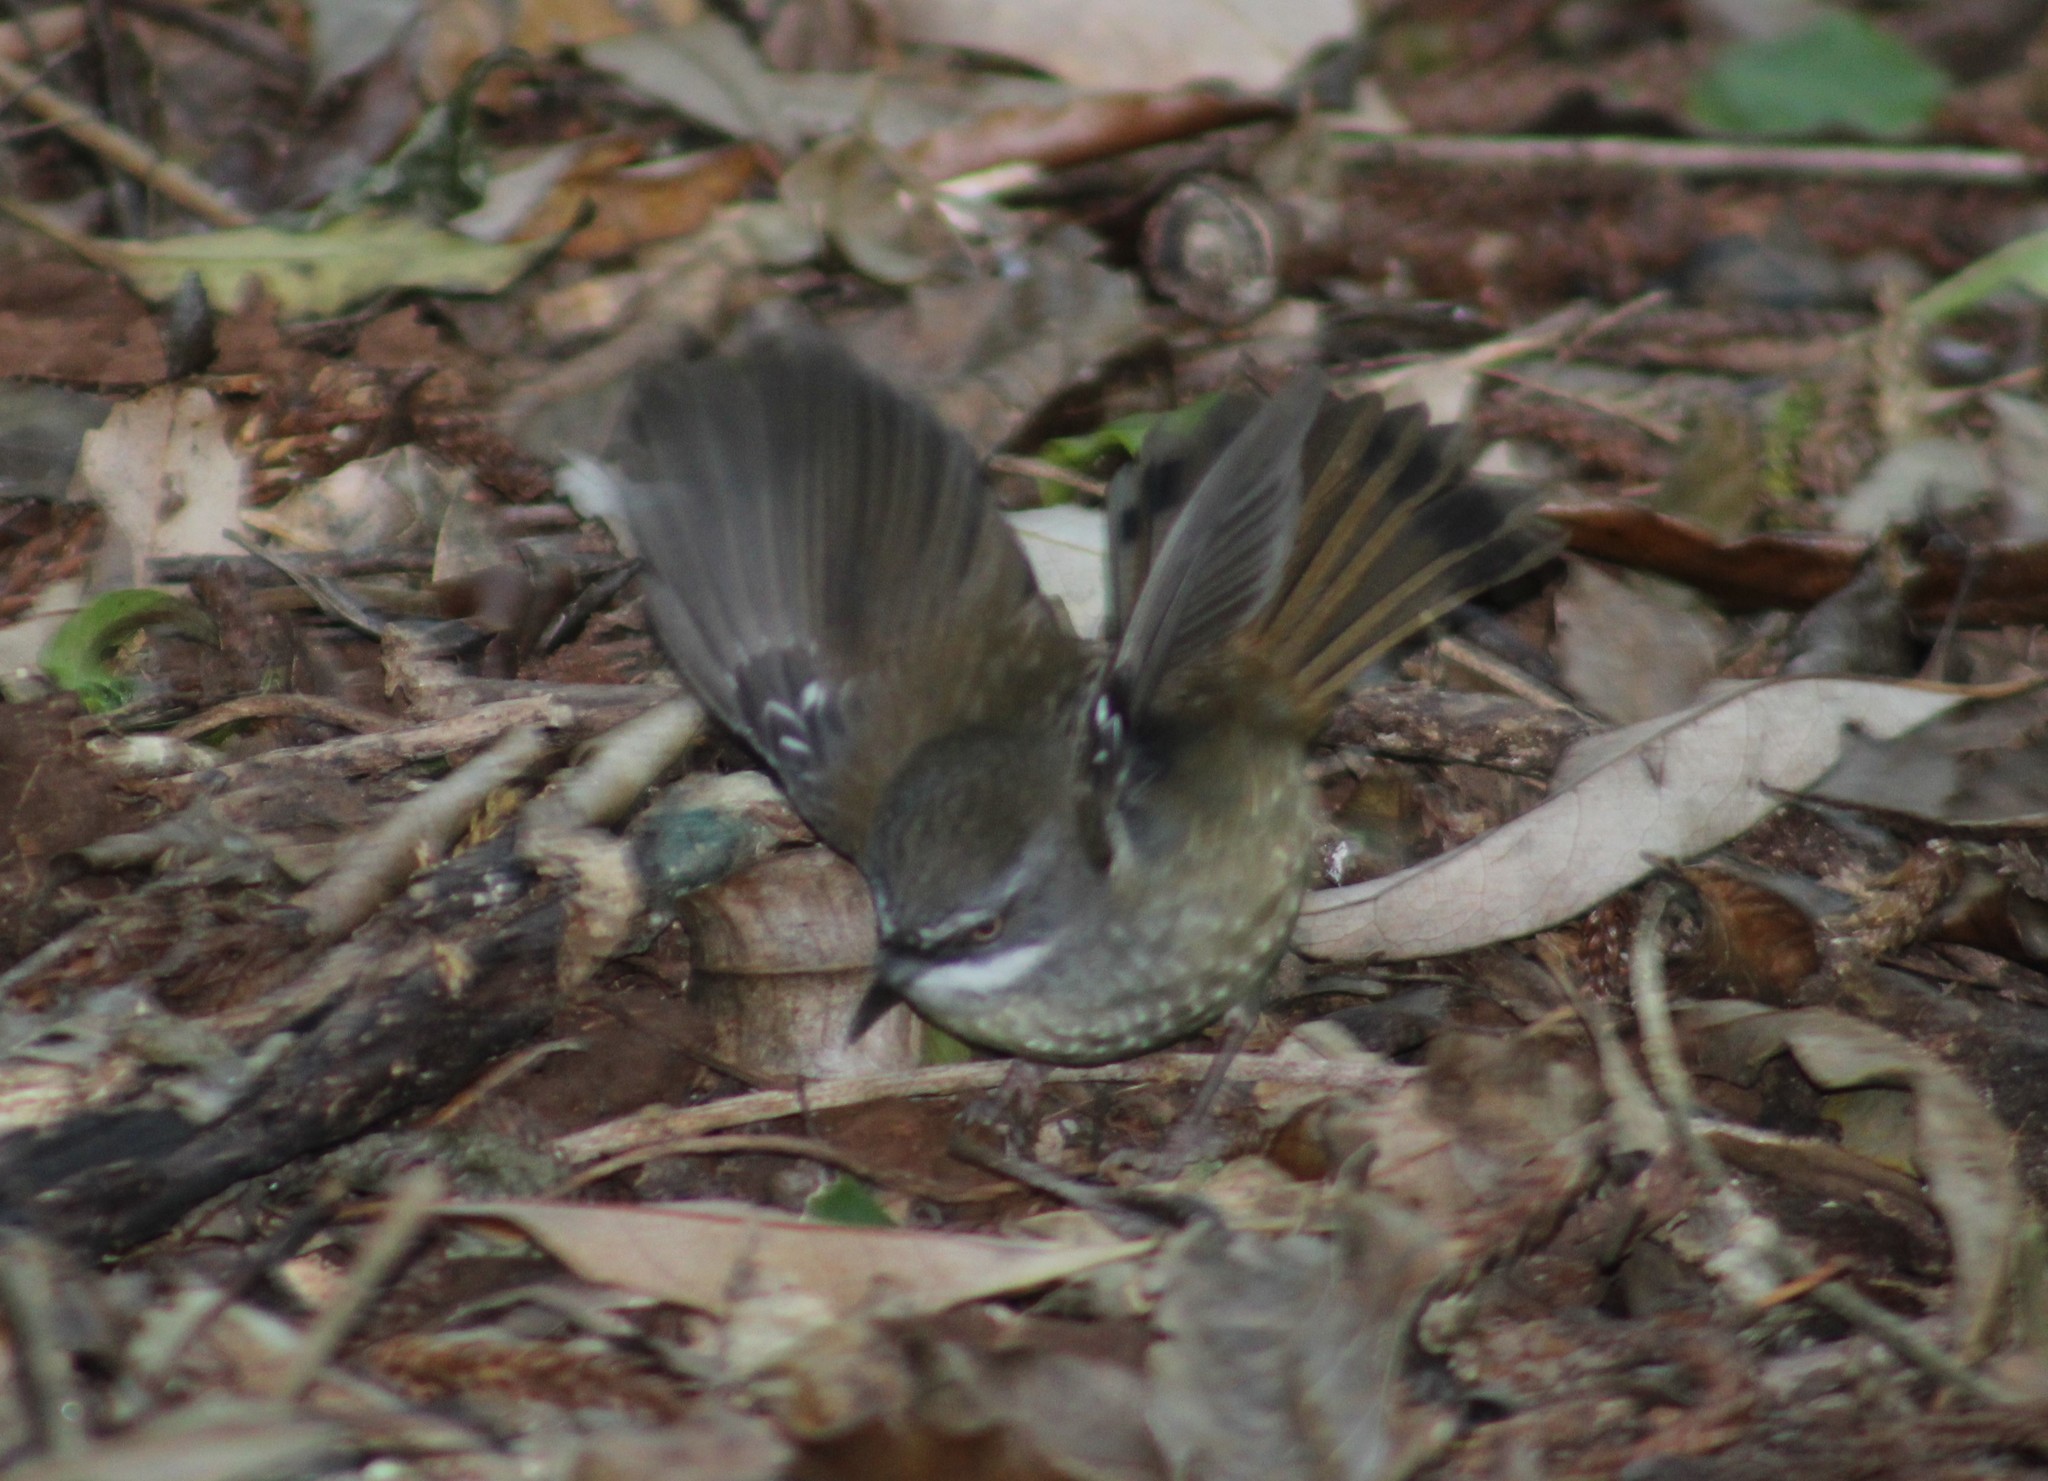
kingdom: Animalia
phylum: Chordata
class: Aves
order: Passeriformes
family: Acanthizidae
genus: Sericornis
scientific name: Sericornis frontalis
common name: White-browed scrubwren
